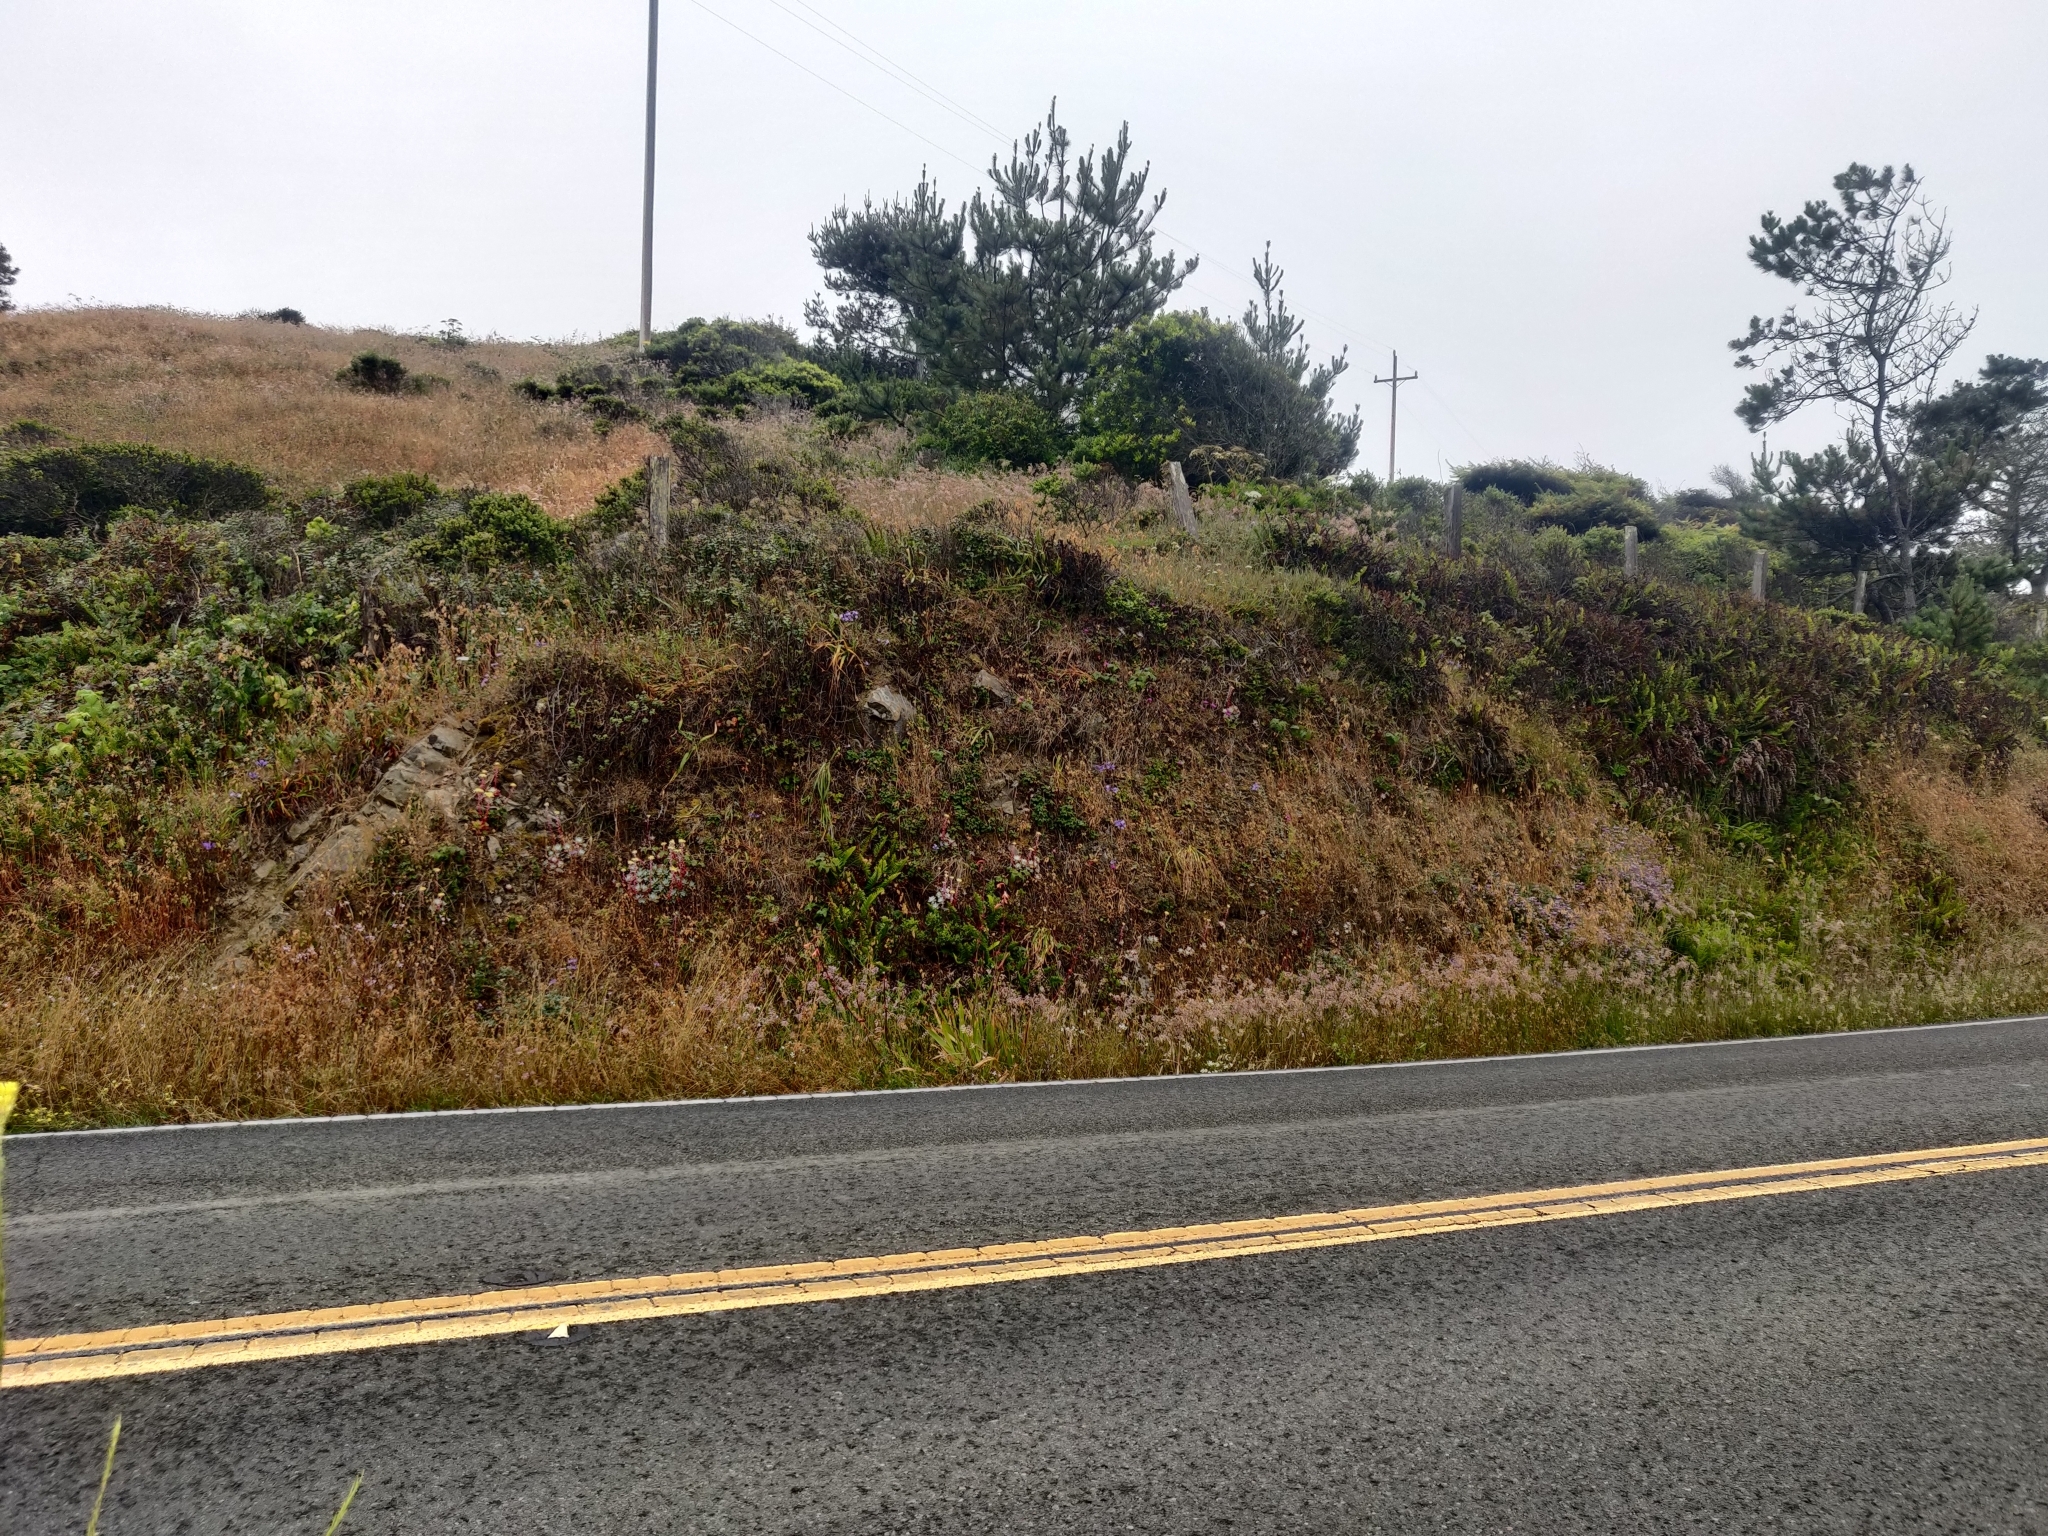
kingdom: Plantae
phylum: Tracheophyta
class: Magnoliopsida
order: Saxifragales
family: Crassulaceae
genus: Dudleya
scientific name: Dudleya farinosa
